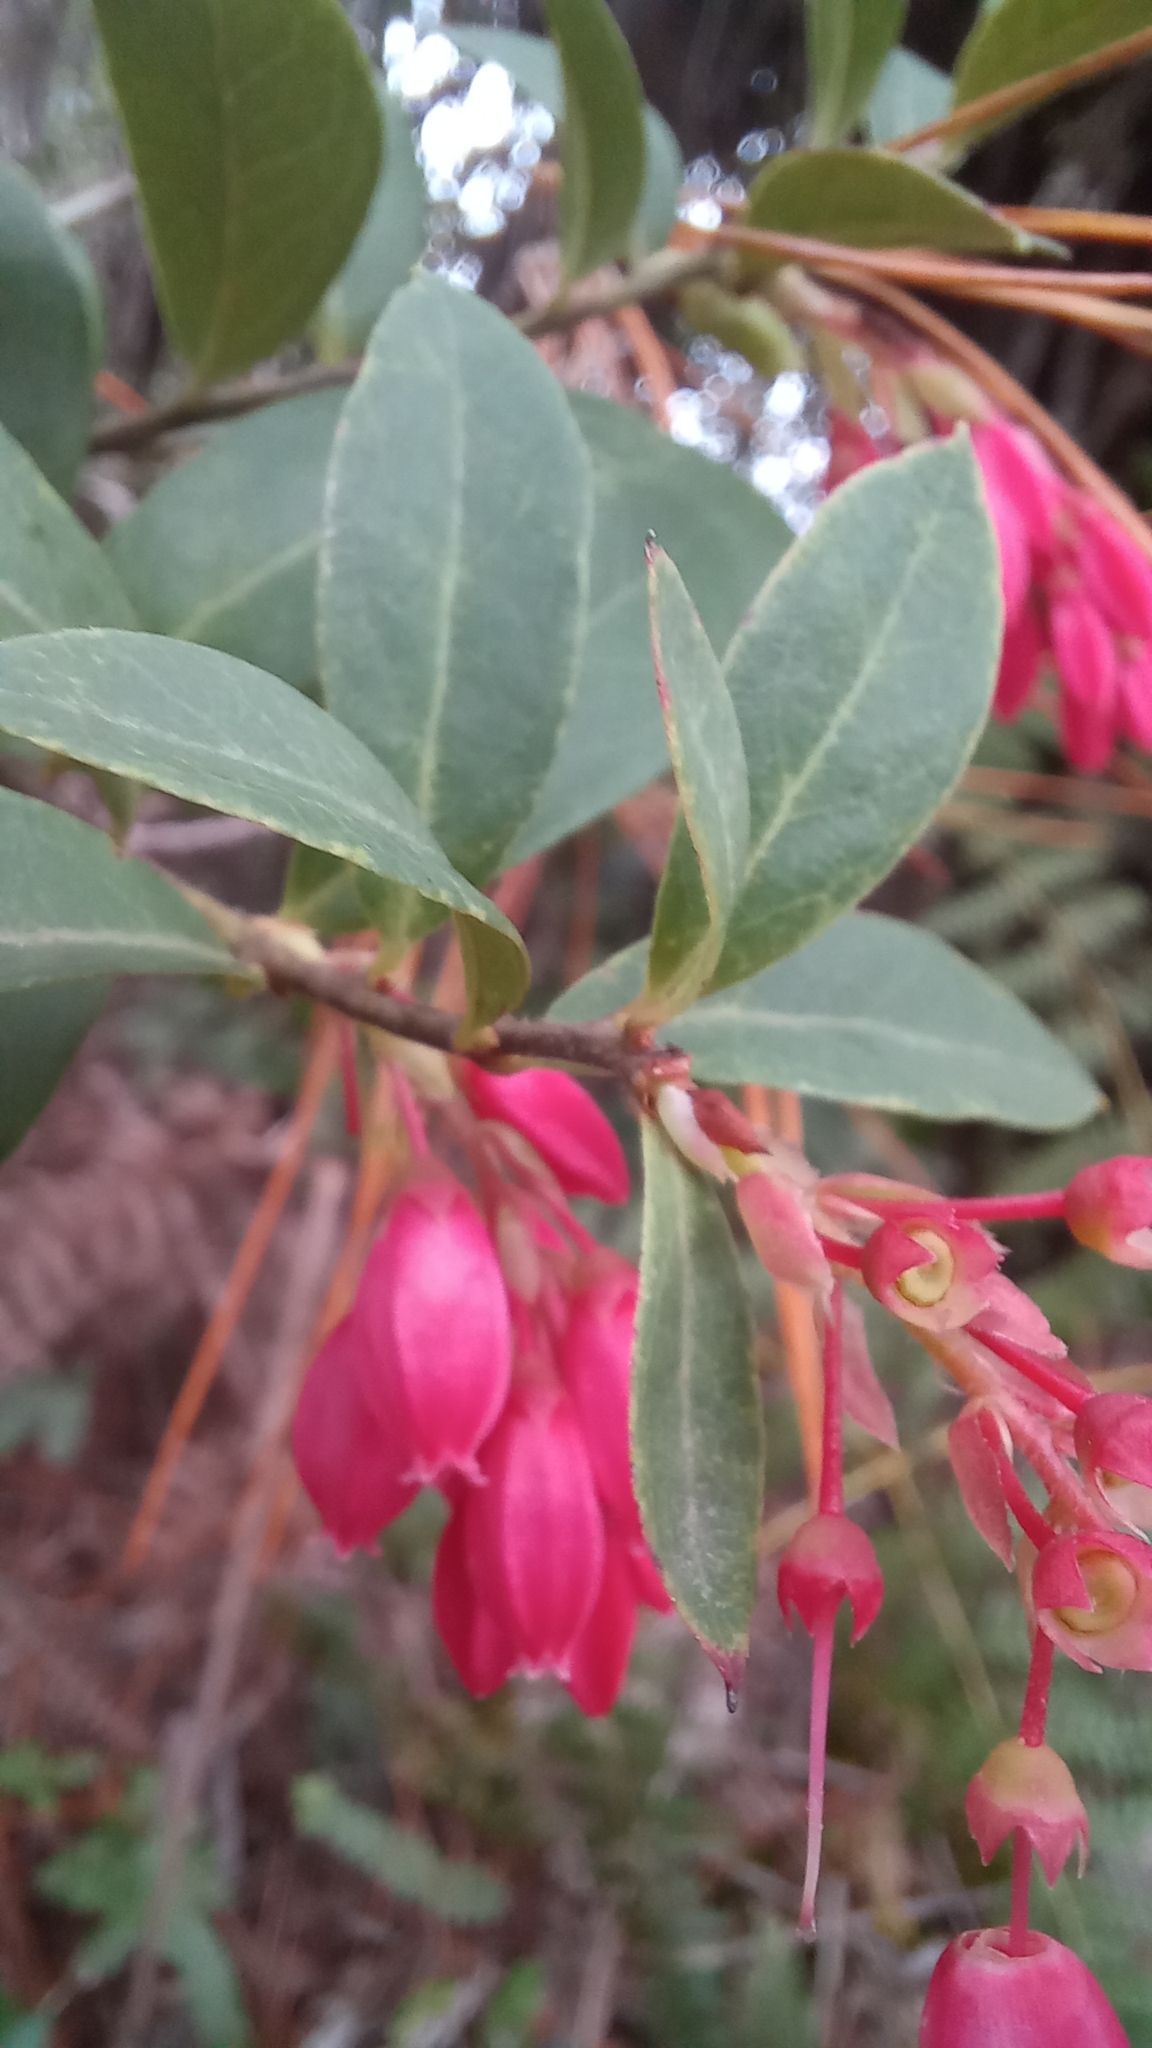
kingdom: Plantae
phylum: Tracheophyta
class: Magnoliopsida
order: Ericales
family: Ericaceae
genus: Gaylussacia
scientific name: Gaylussacia brasiliensis
